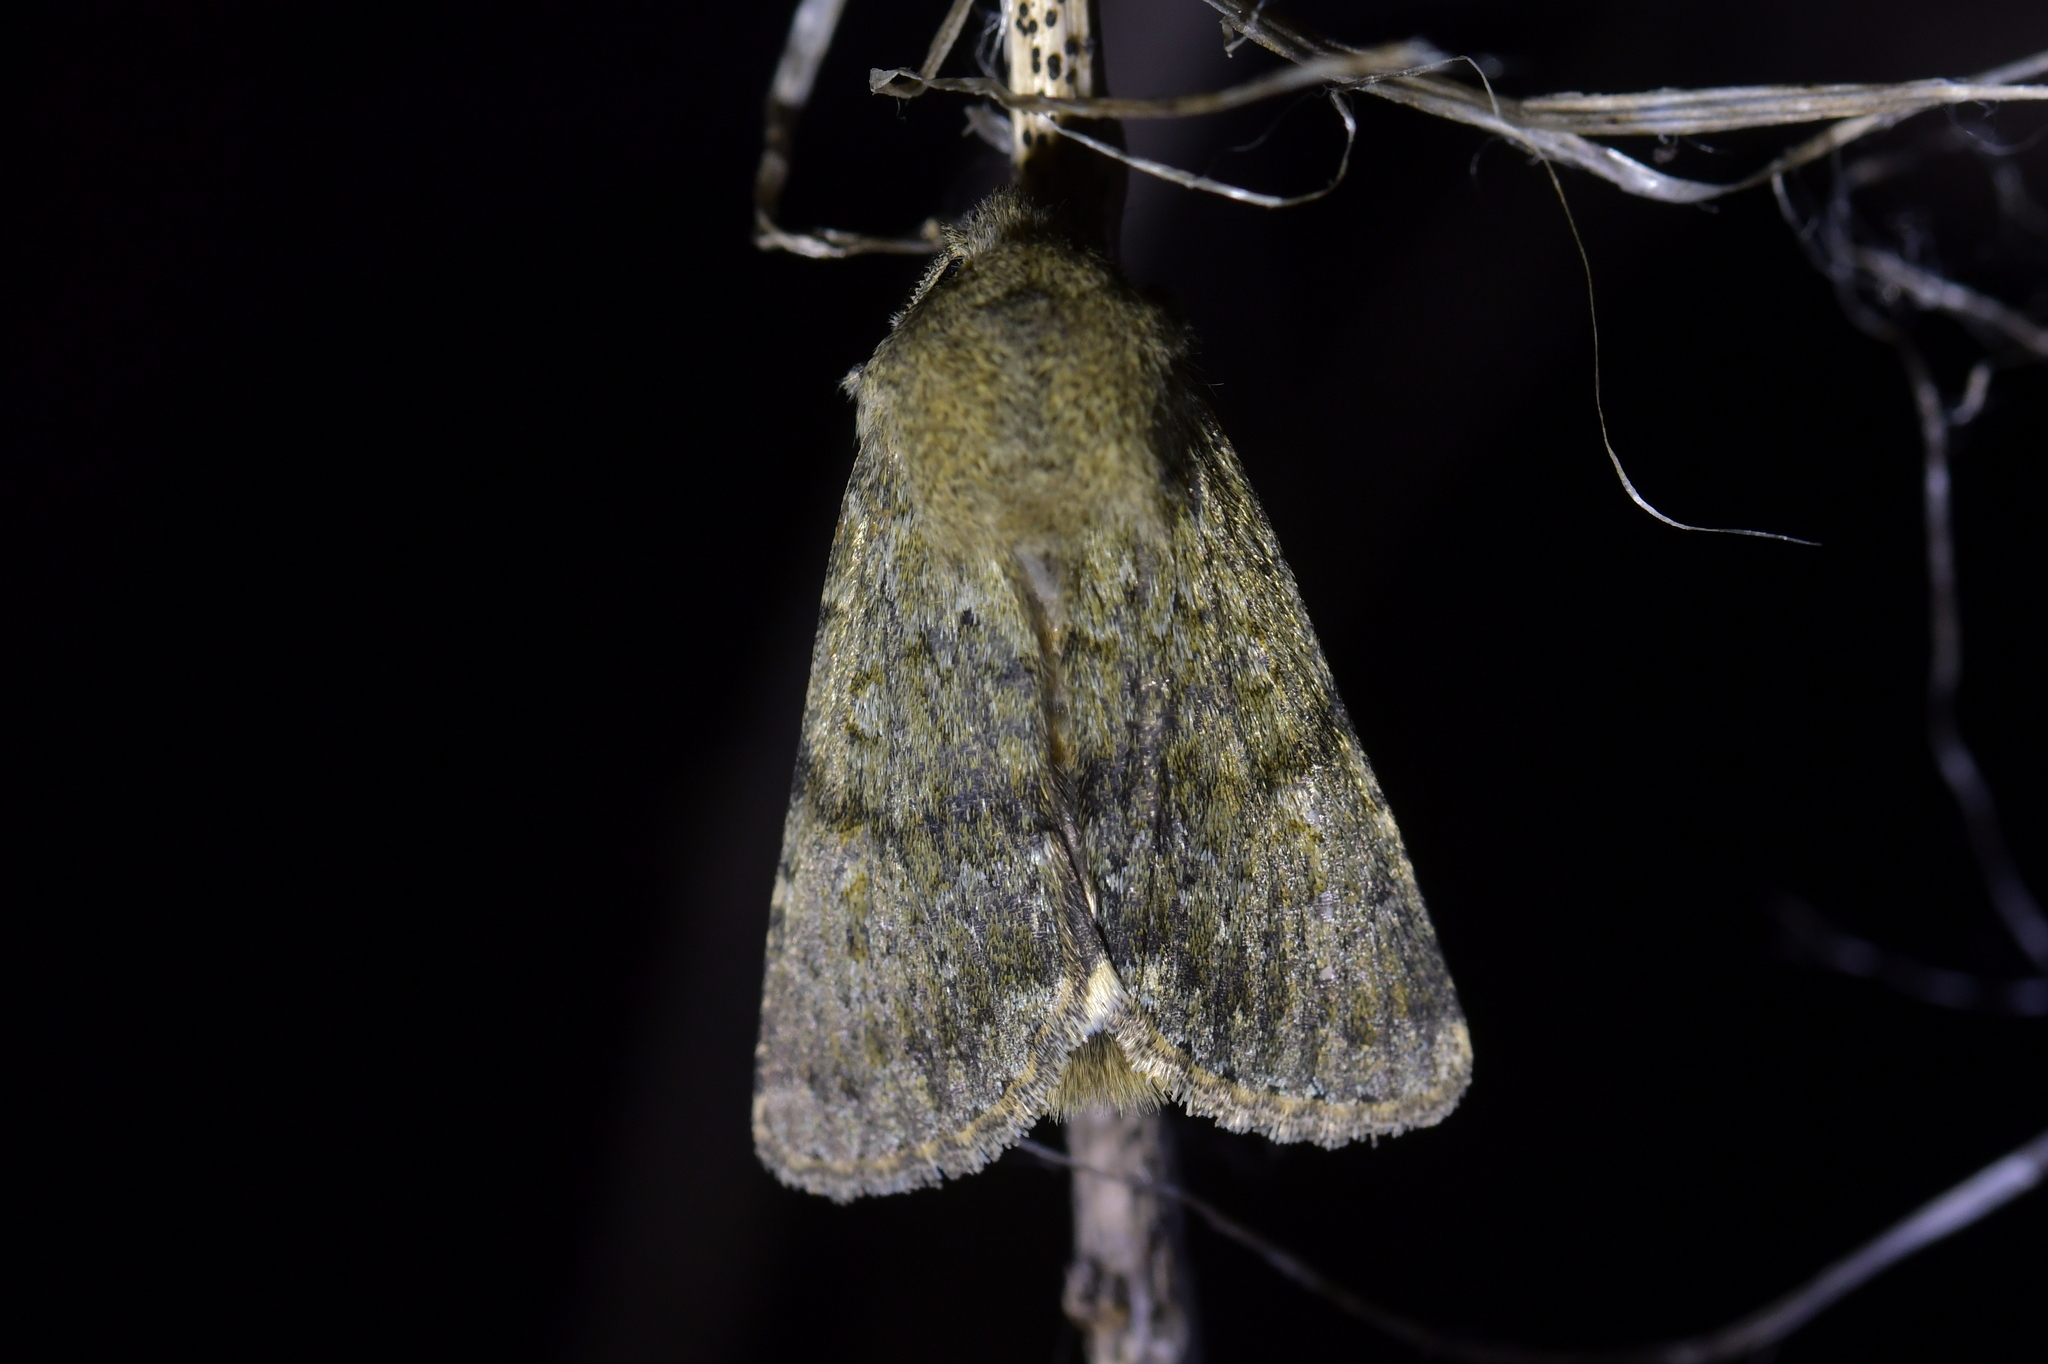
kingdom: Animalia
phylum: Arthropoda
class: Insecta
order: Lepidoptera
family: Noctuidae
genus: Ichneutica
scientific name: Ichneutica moderata
